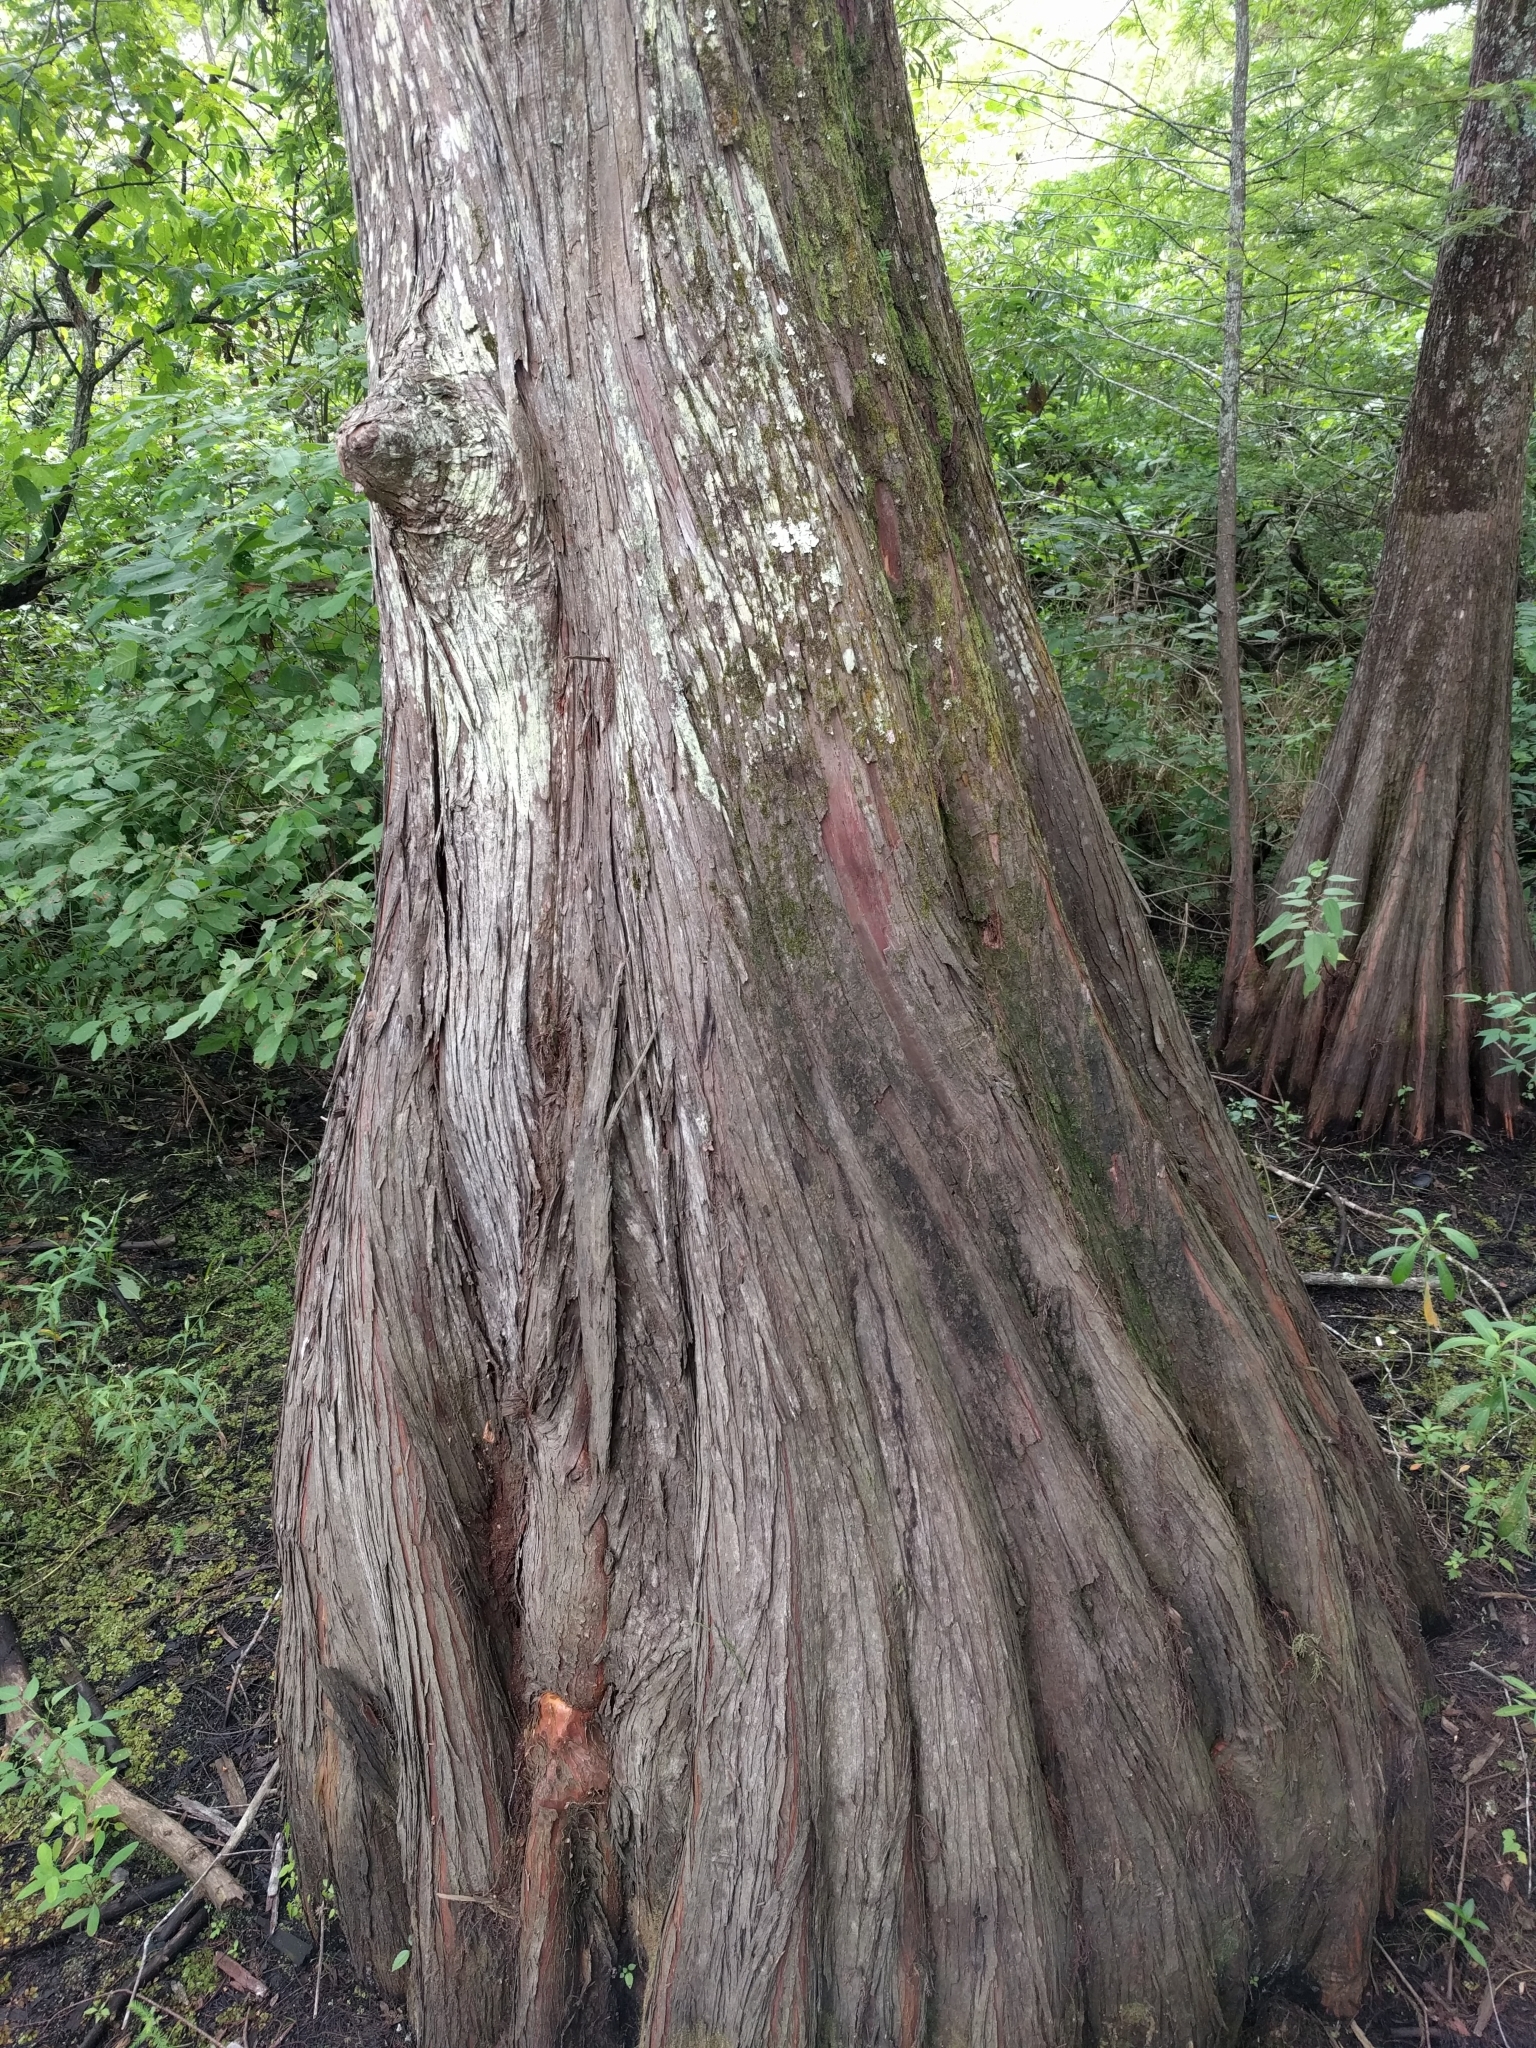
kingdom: Plantae
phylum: Tracheophyta
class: Pinopsida
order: Pinales
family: Cupressaceae
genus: Taxodium
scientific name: Taxodium distichum
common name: Bald cypress
